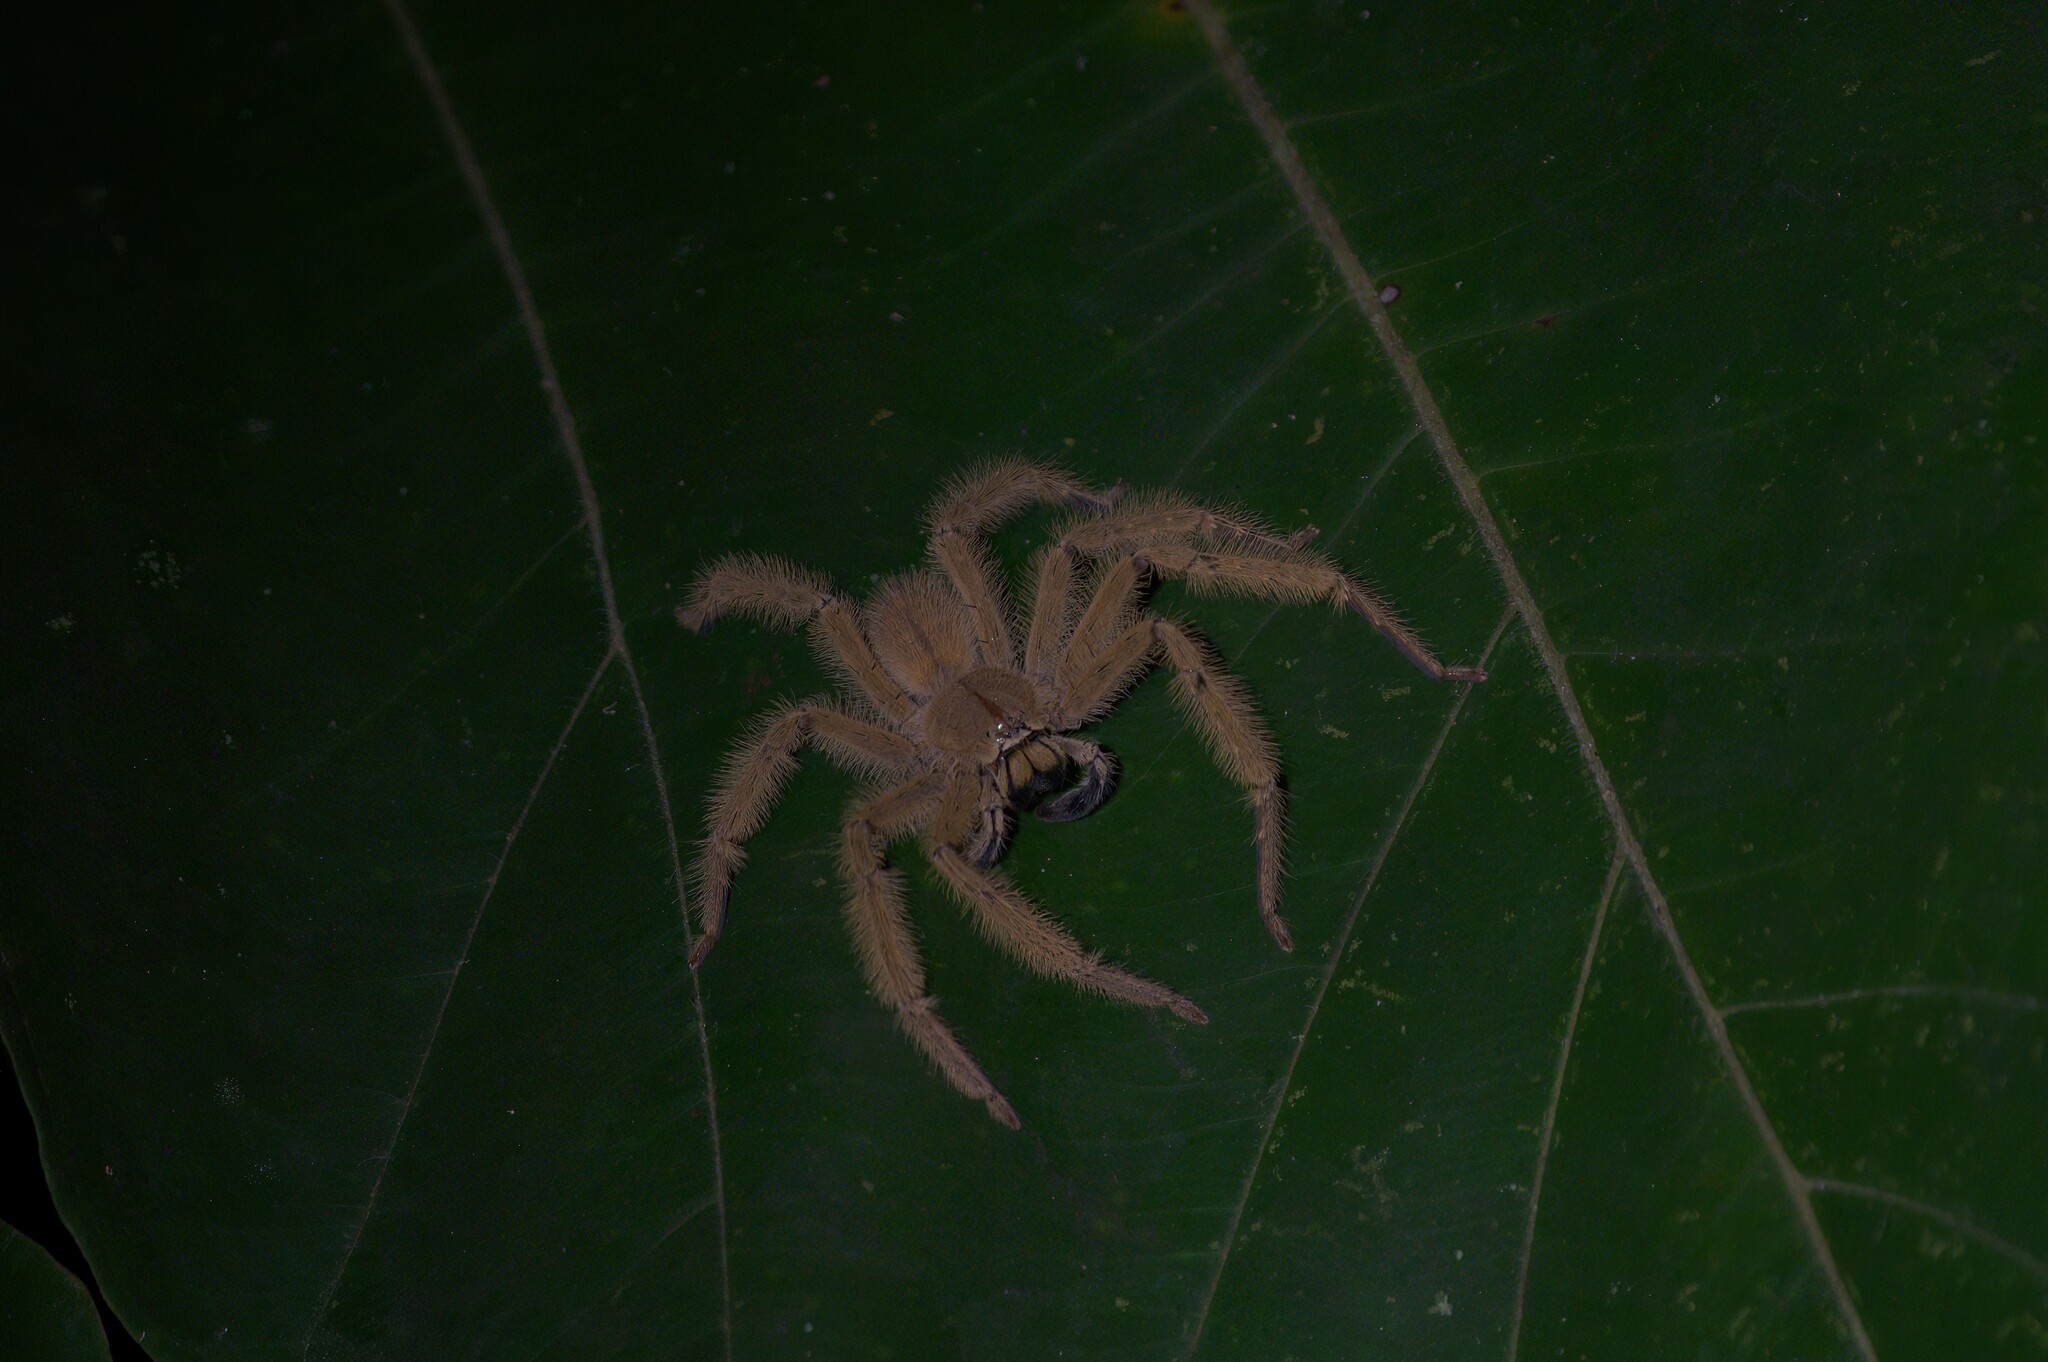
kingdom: Animalia
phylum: Arthropoda
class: Arachnida
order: Araneae
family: Sparassidae
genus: Heteropoda
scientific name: Heteropoda davidbowie
